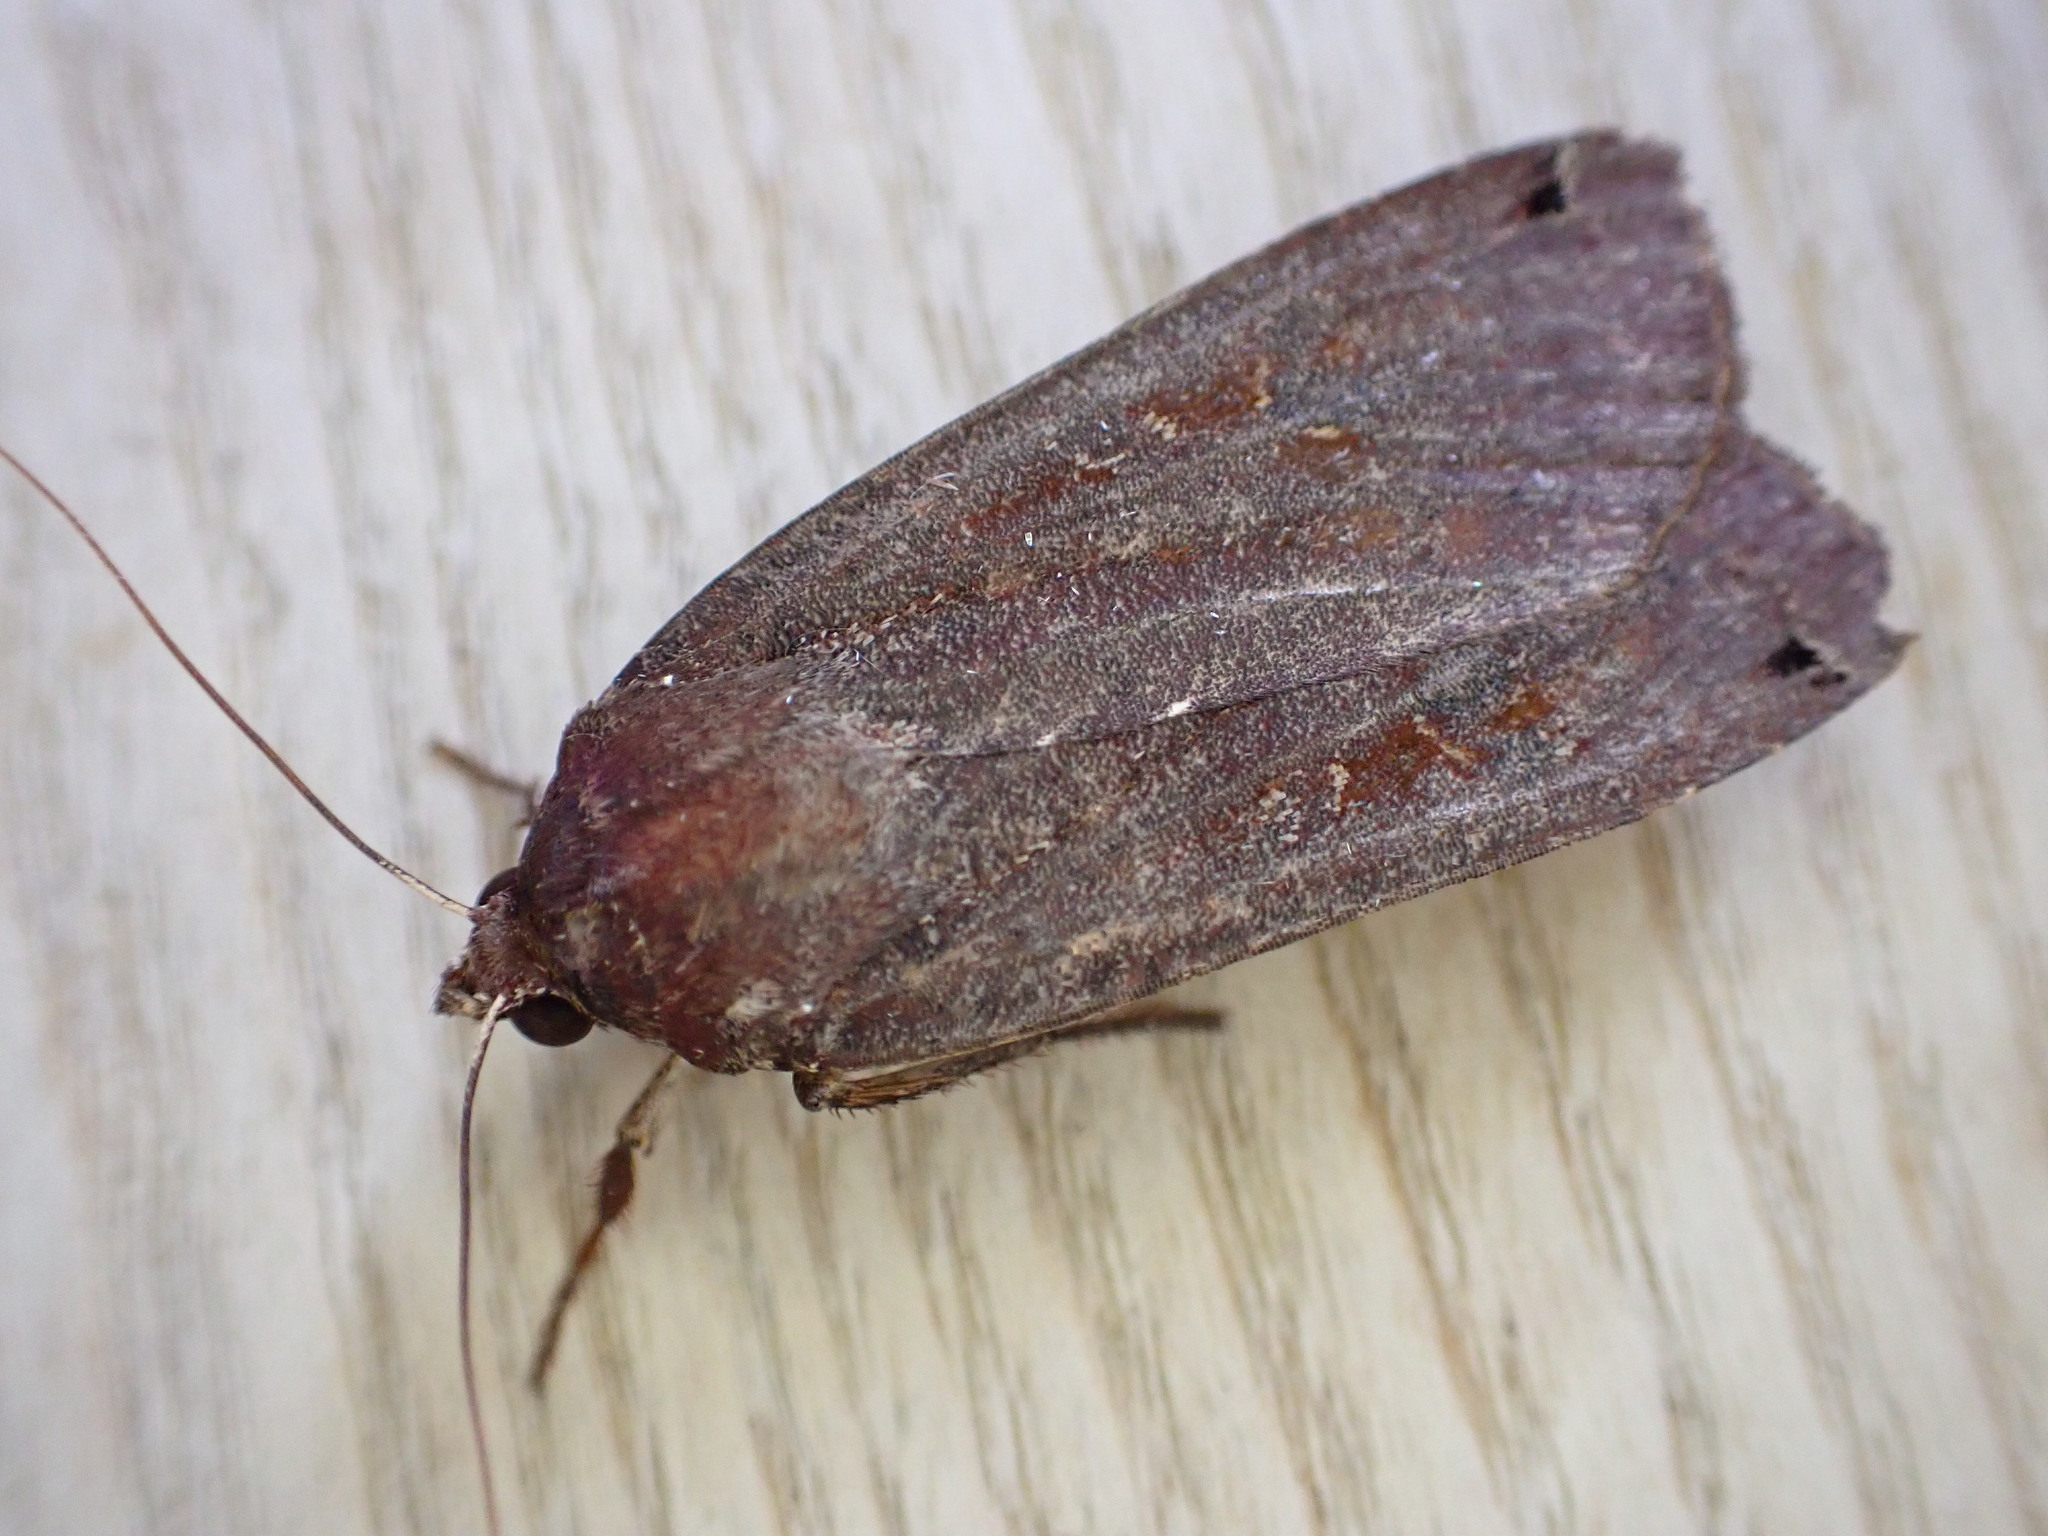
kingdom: Animalia
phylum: Arthropoda
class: Insecta
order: Lepidoptera
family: Noctuidae
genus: Noctua
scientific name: Noctua pronuba
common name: Large yellow underwing
